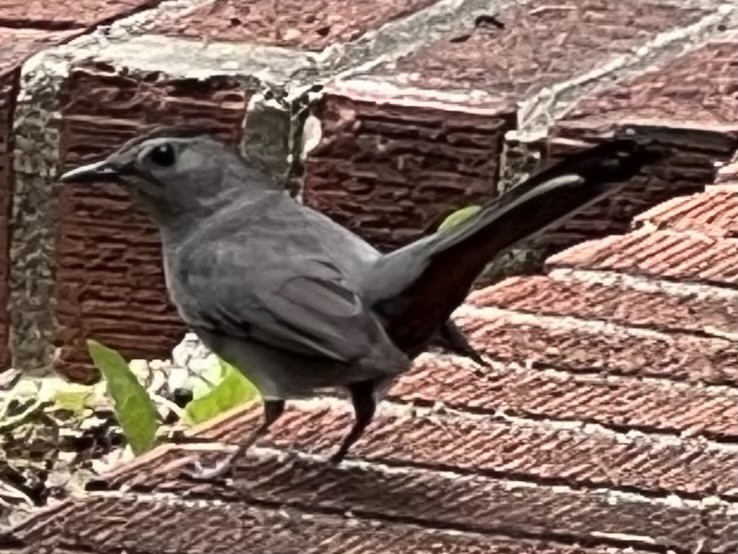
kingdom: Animalia
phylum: Chordata
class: Aves
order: Passeriformes
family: Mimidae
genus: Dumetella
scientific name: Dumetella carolinensis
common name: Gray catbird
